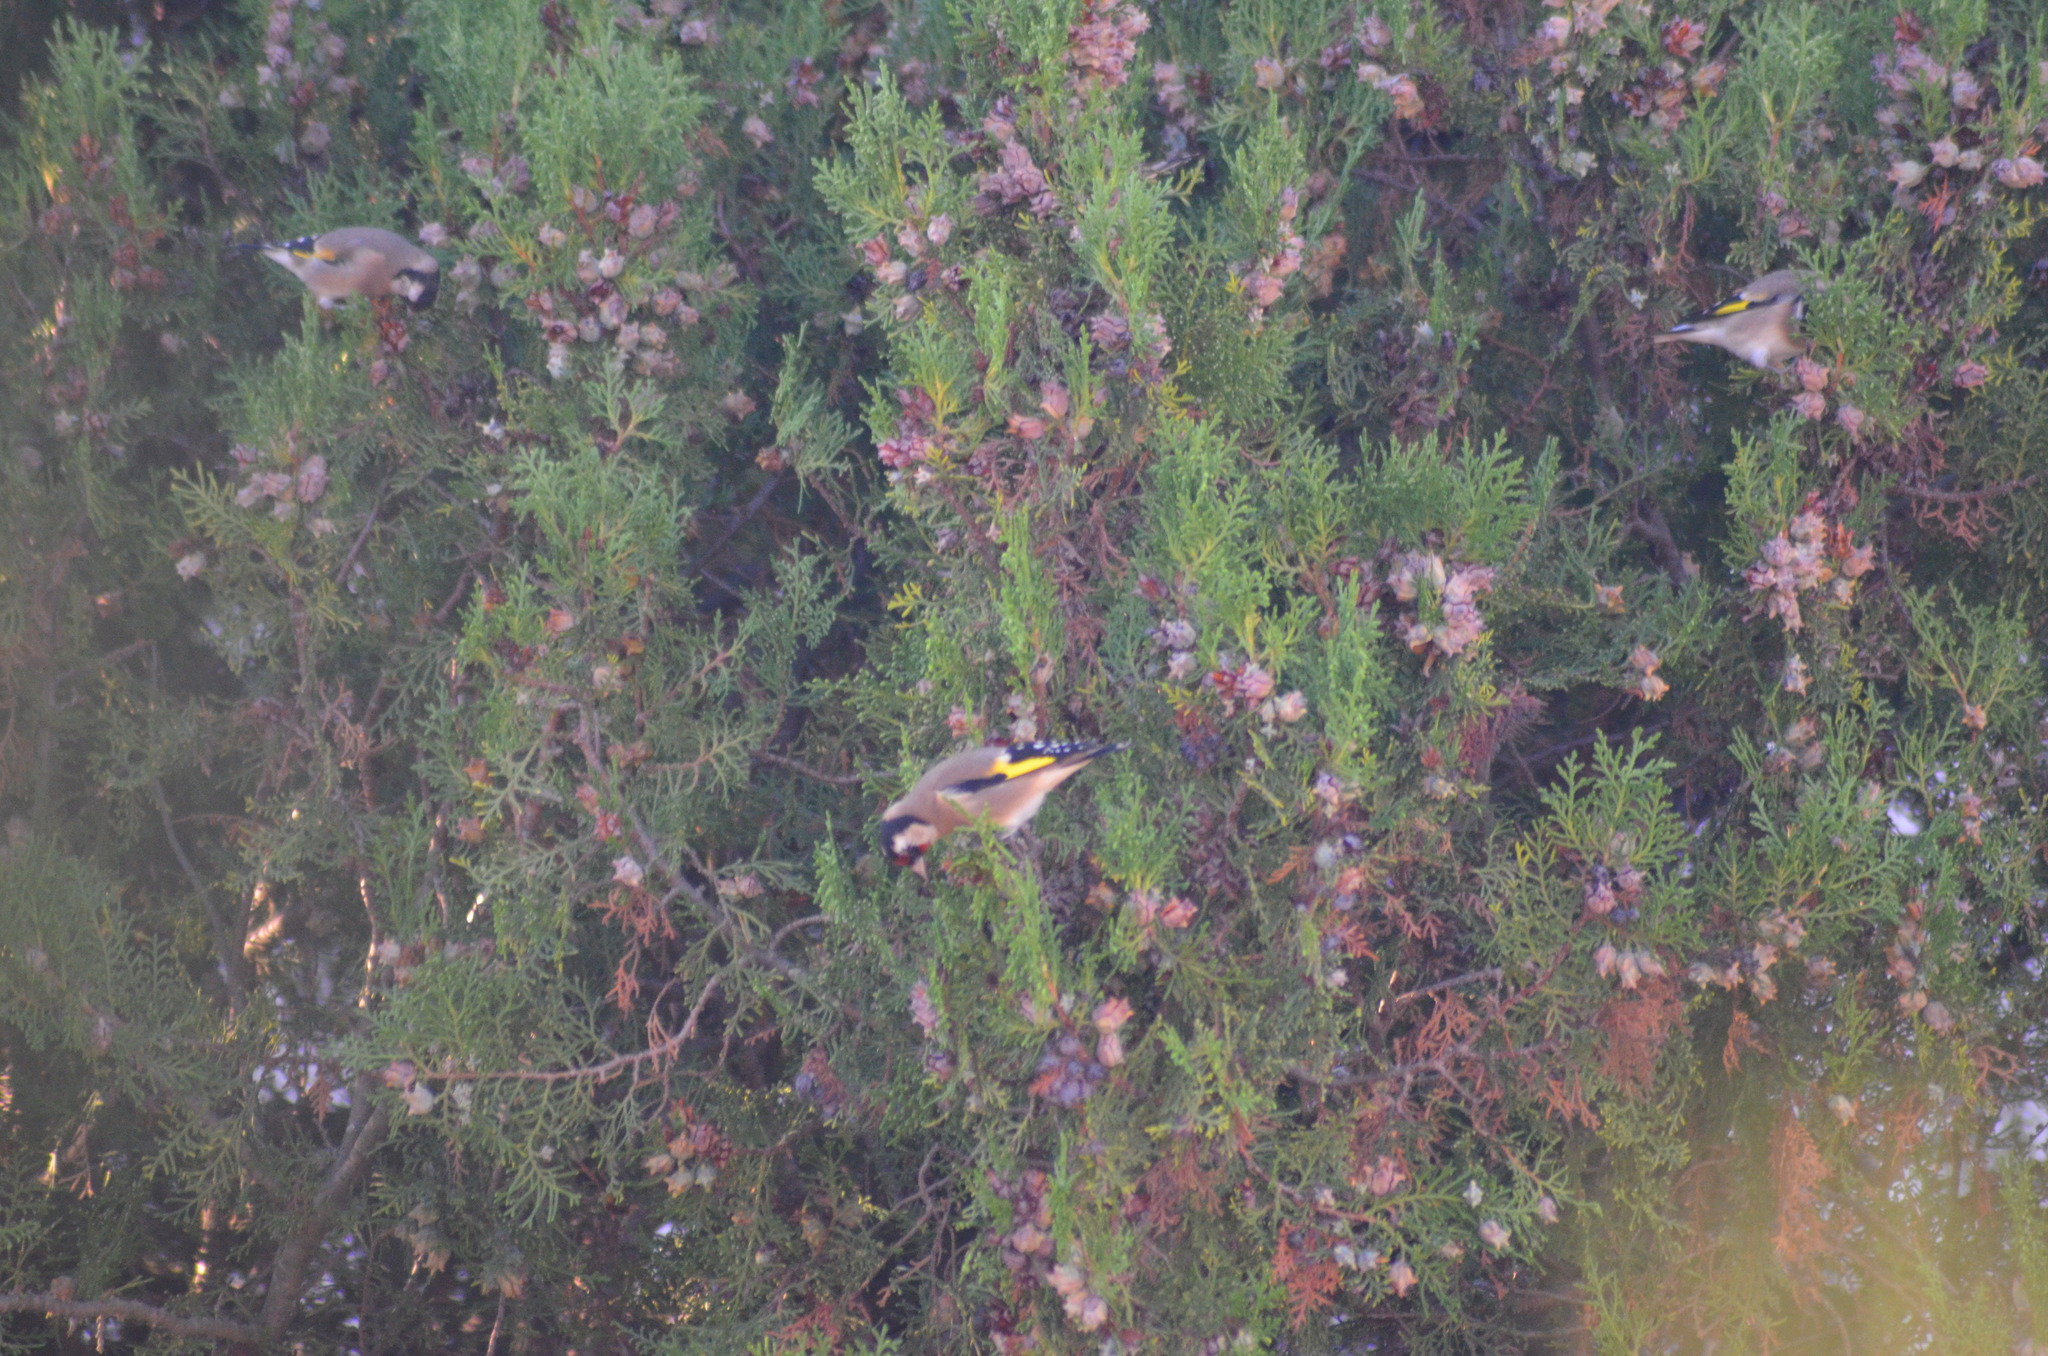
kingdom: Animalia
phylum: Chordata
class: Aves
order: Passeriformes
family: Fringillidae
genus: Carduelis
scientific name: Carduelis carduelis
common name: European goldfinch
